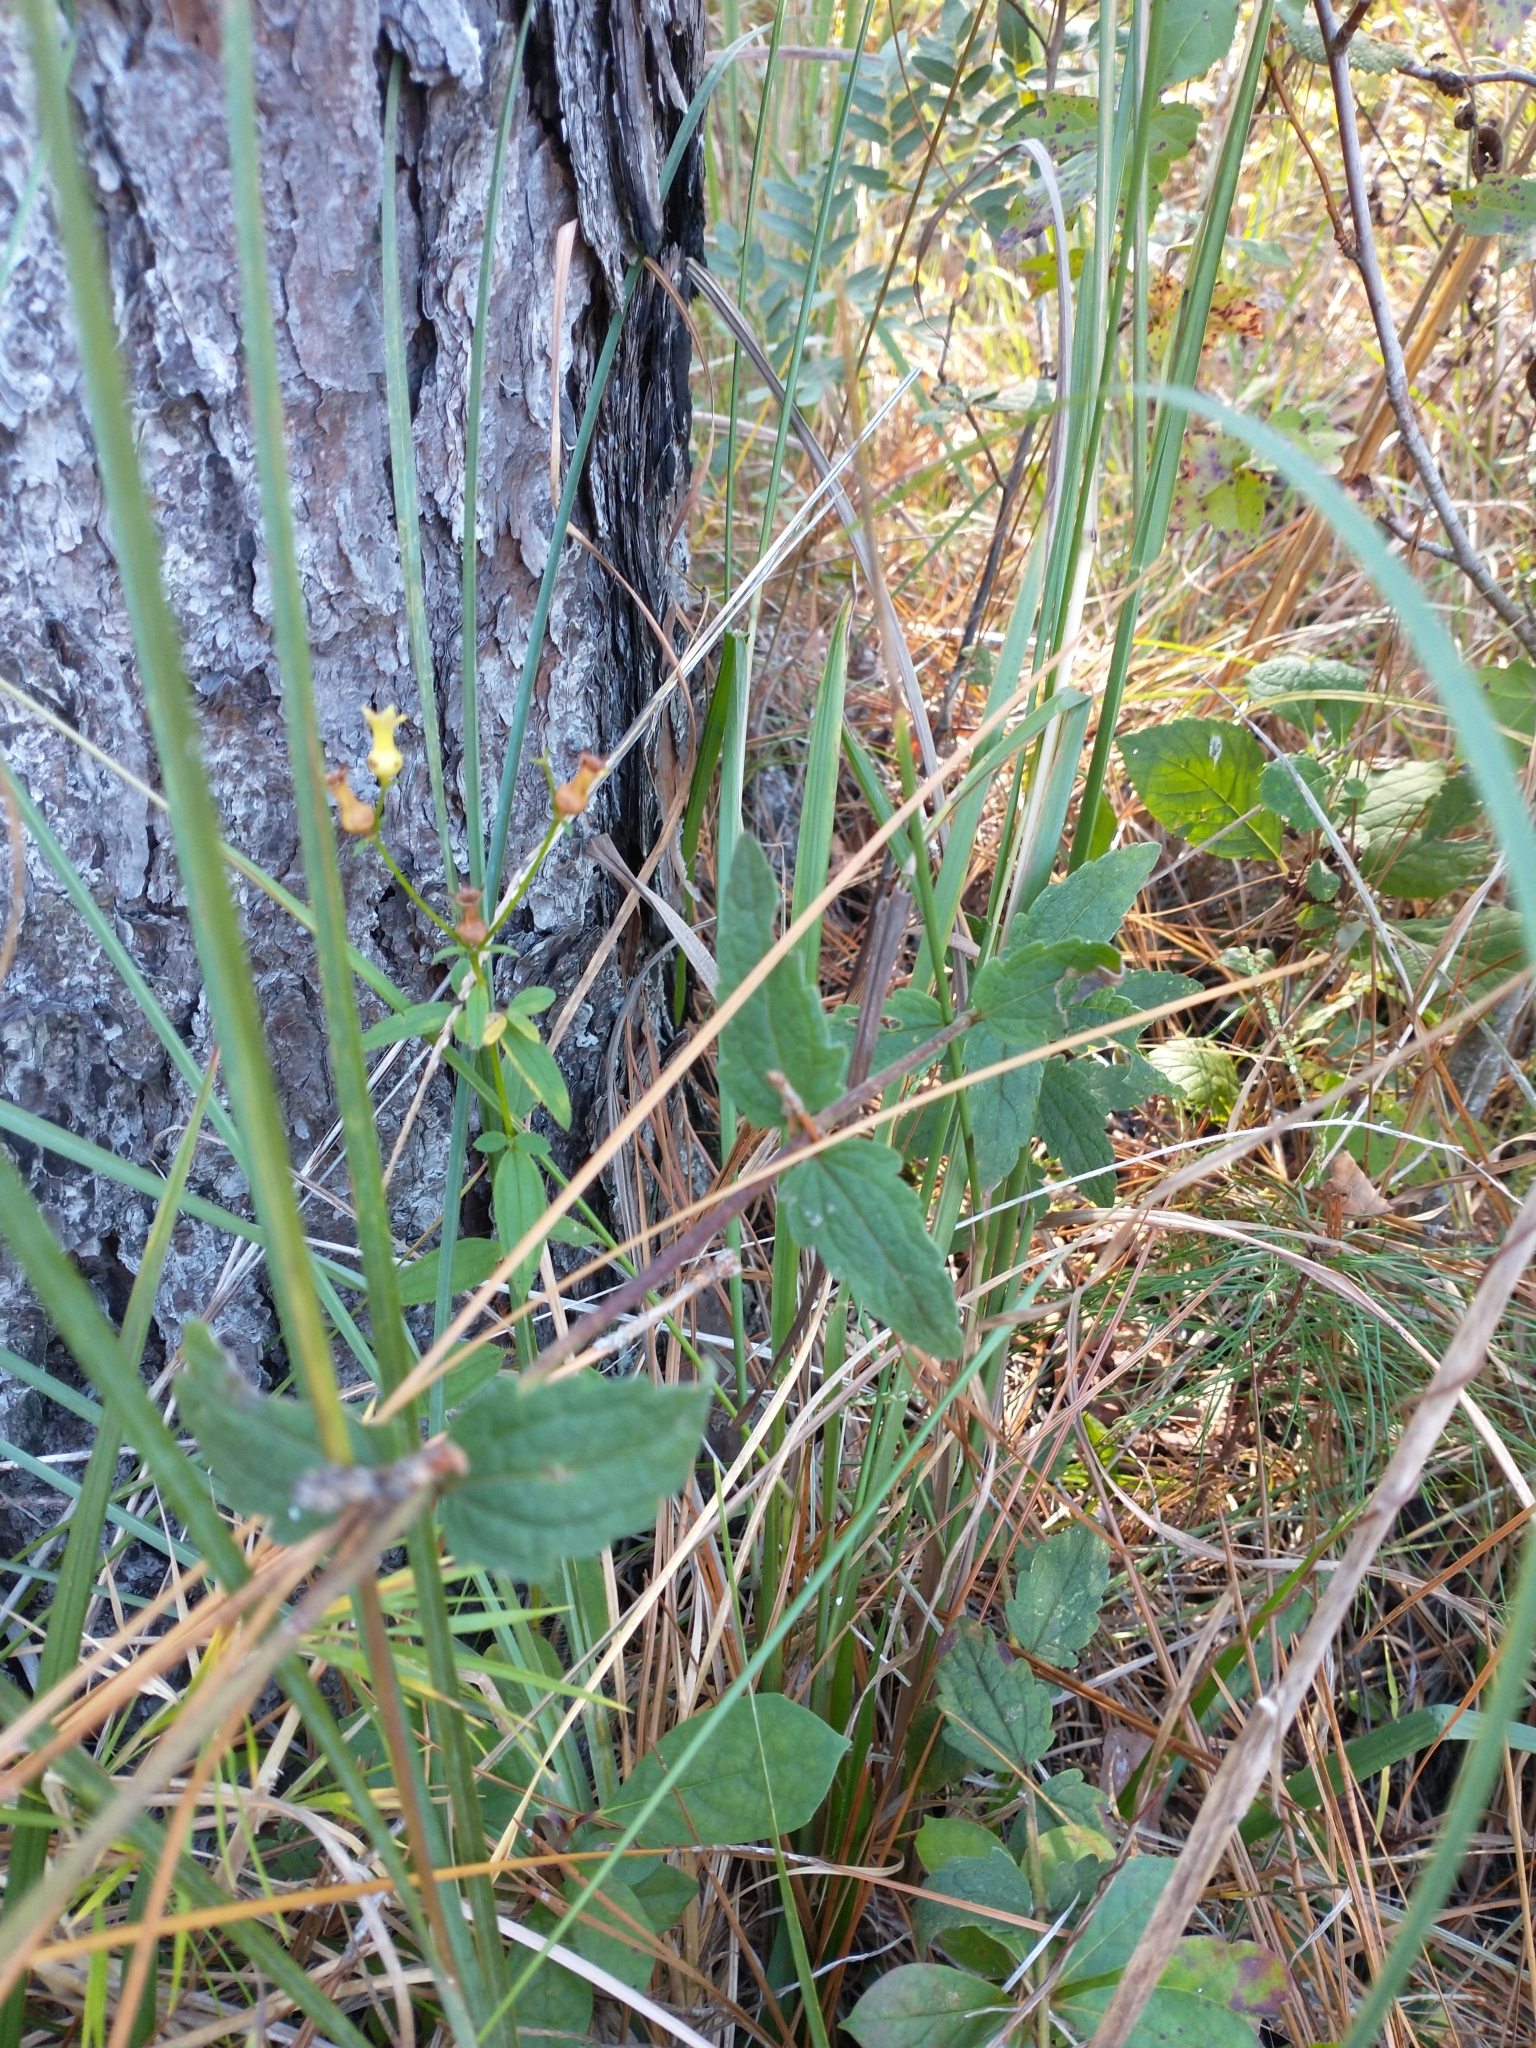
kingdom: Plantae
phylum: Tracheophyta
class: Magnoliopsida
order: Asterales
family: Asteraceae
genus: Eupatorium
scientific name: Eupatorium pilosum
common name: Rough boneset
